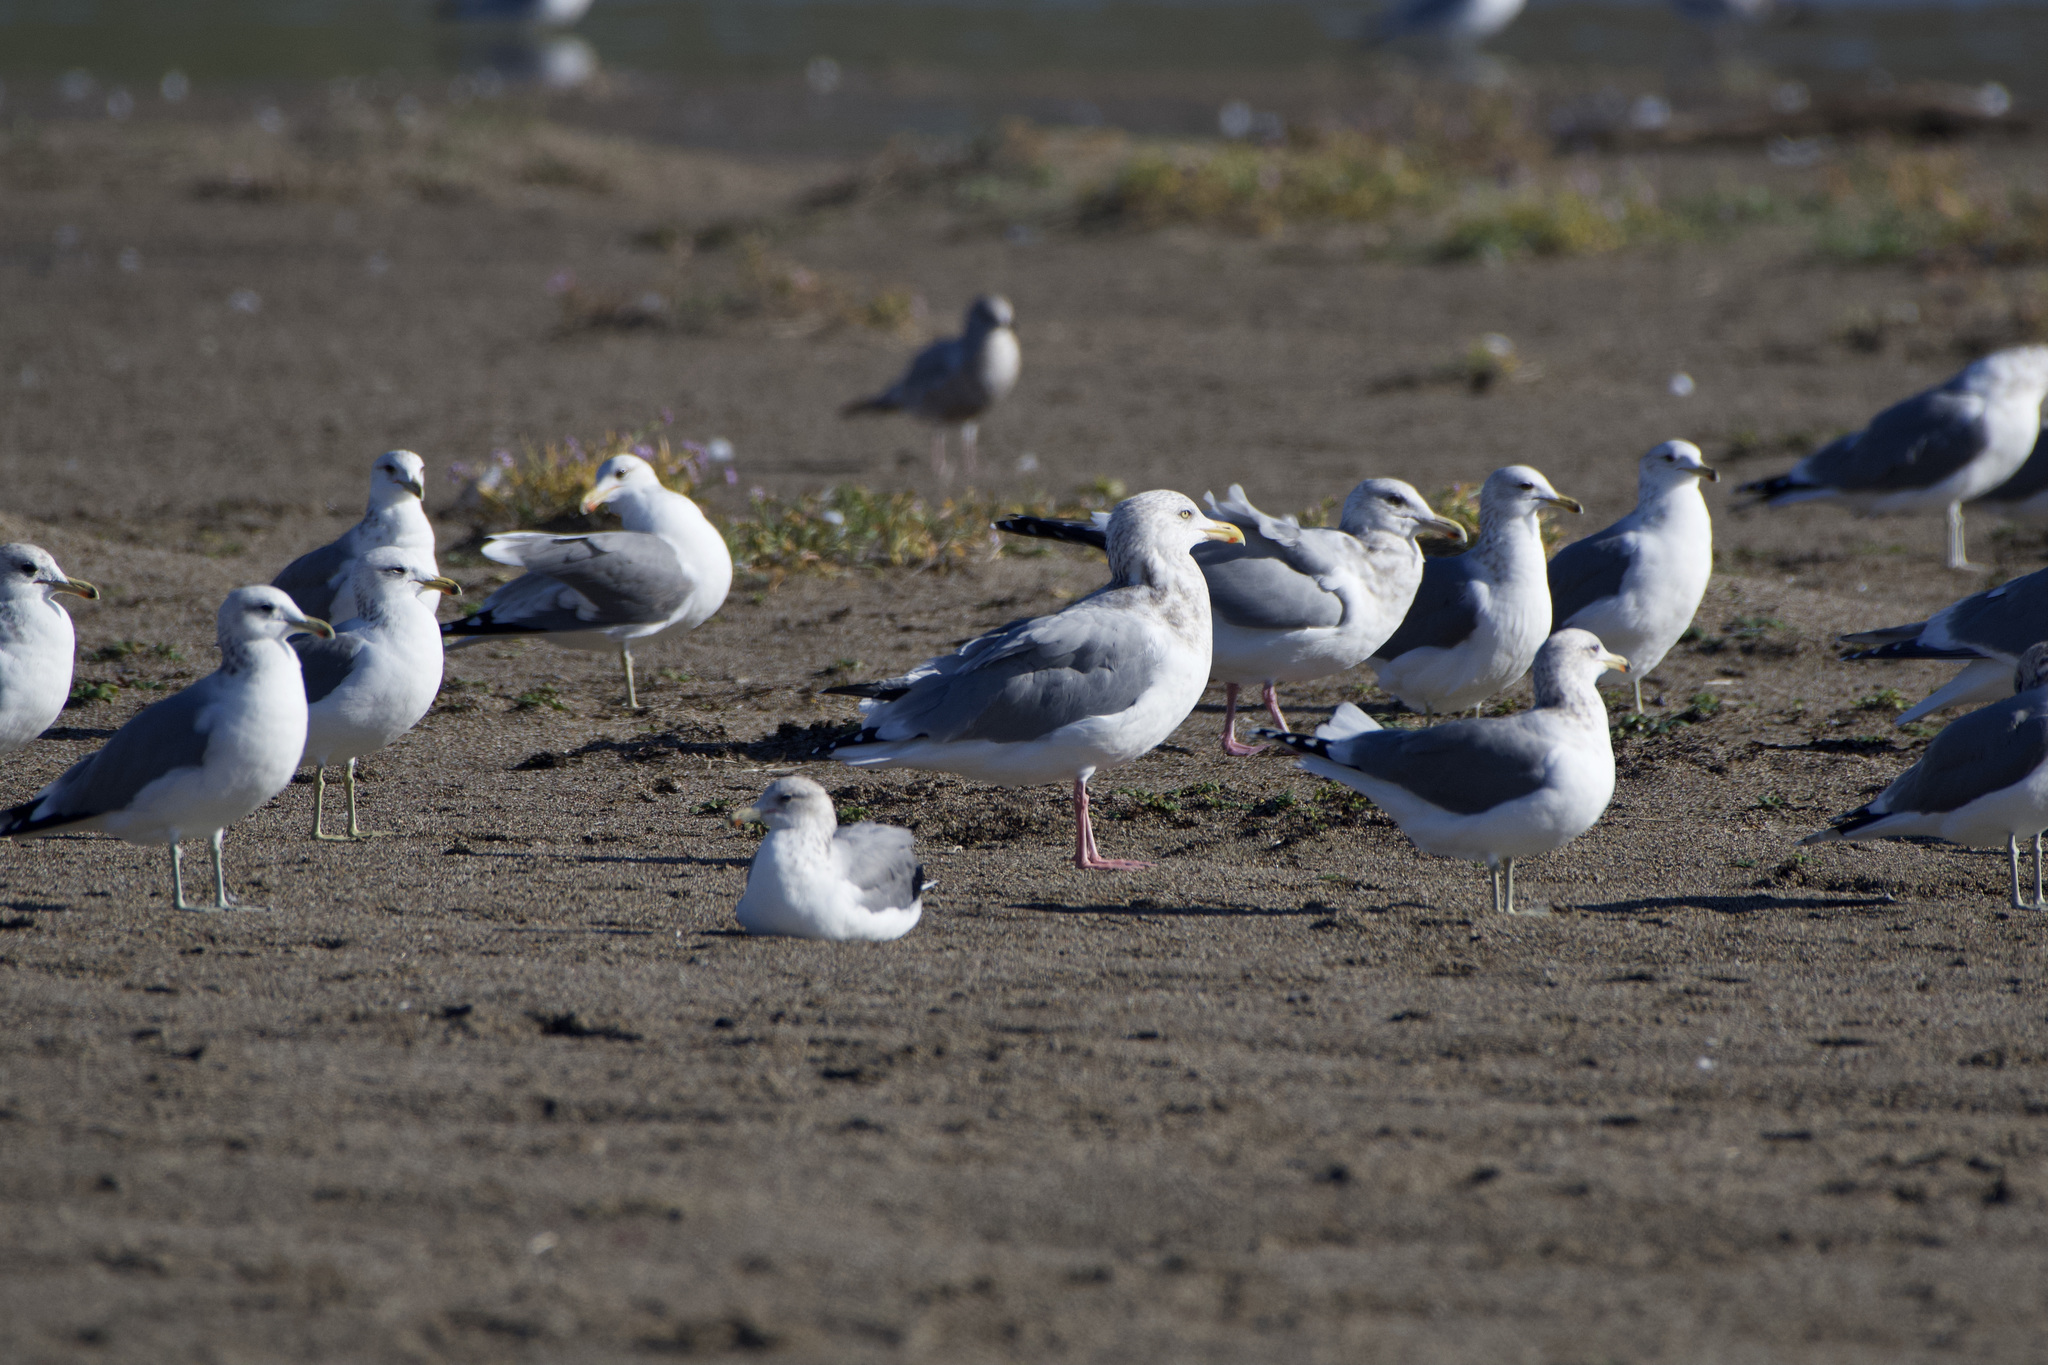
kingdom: Animalia
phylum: Chordata
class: Aves
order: Charadriiformes
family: Laridae
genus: Larus
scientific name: Larus smithsonianus
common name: American herring gull
